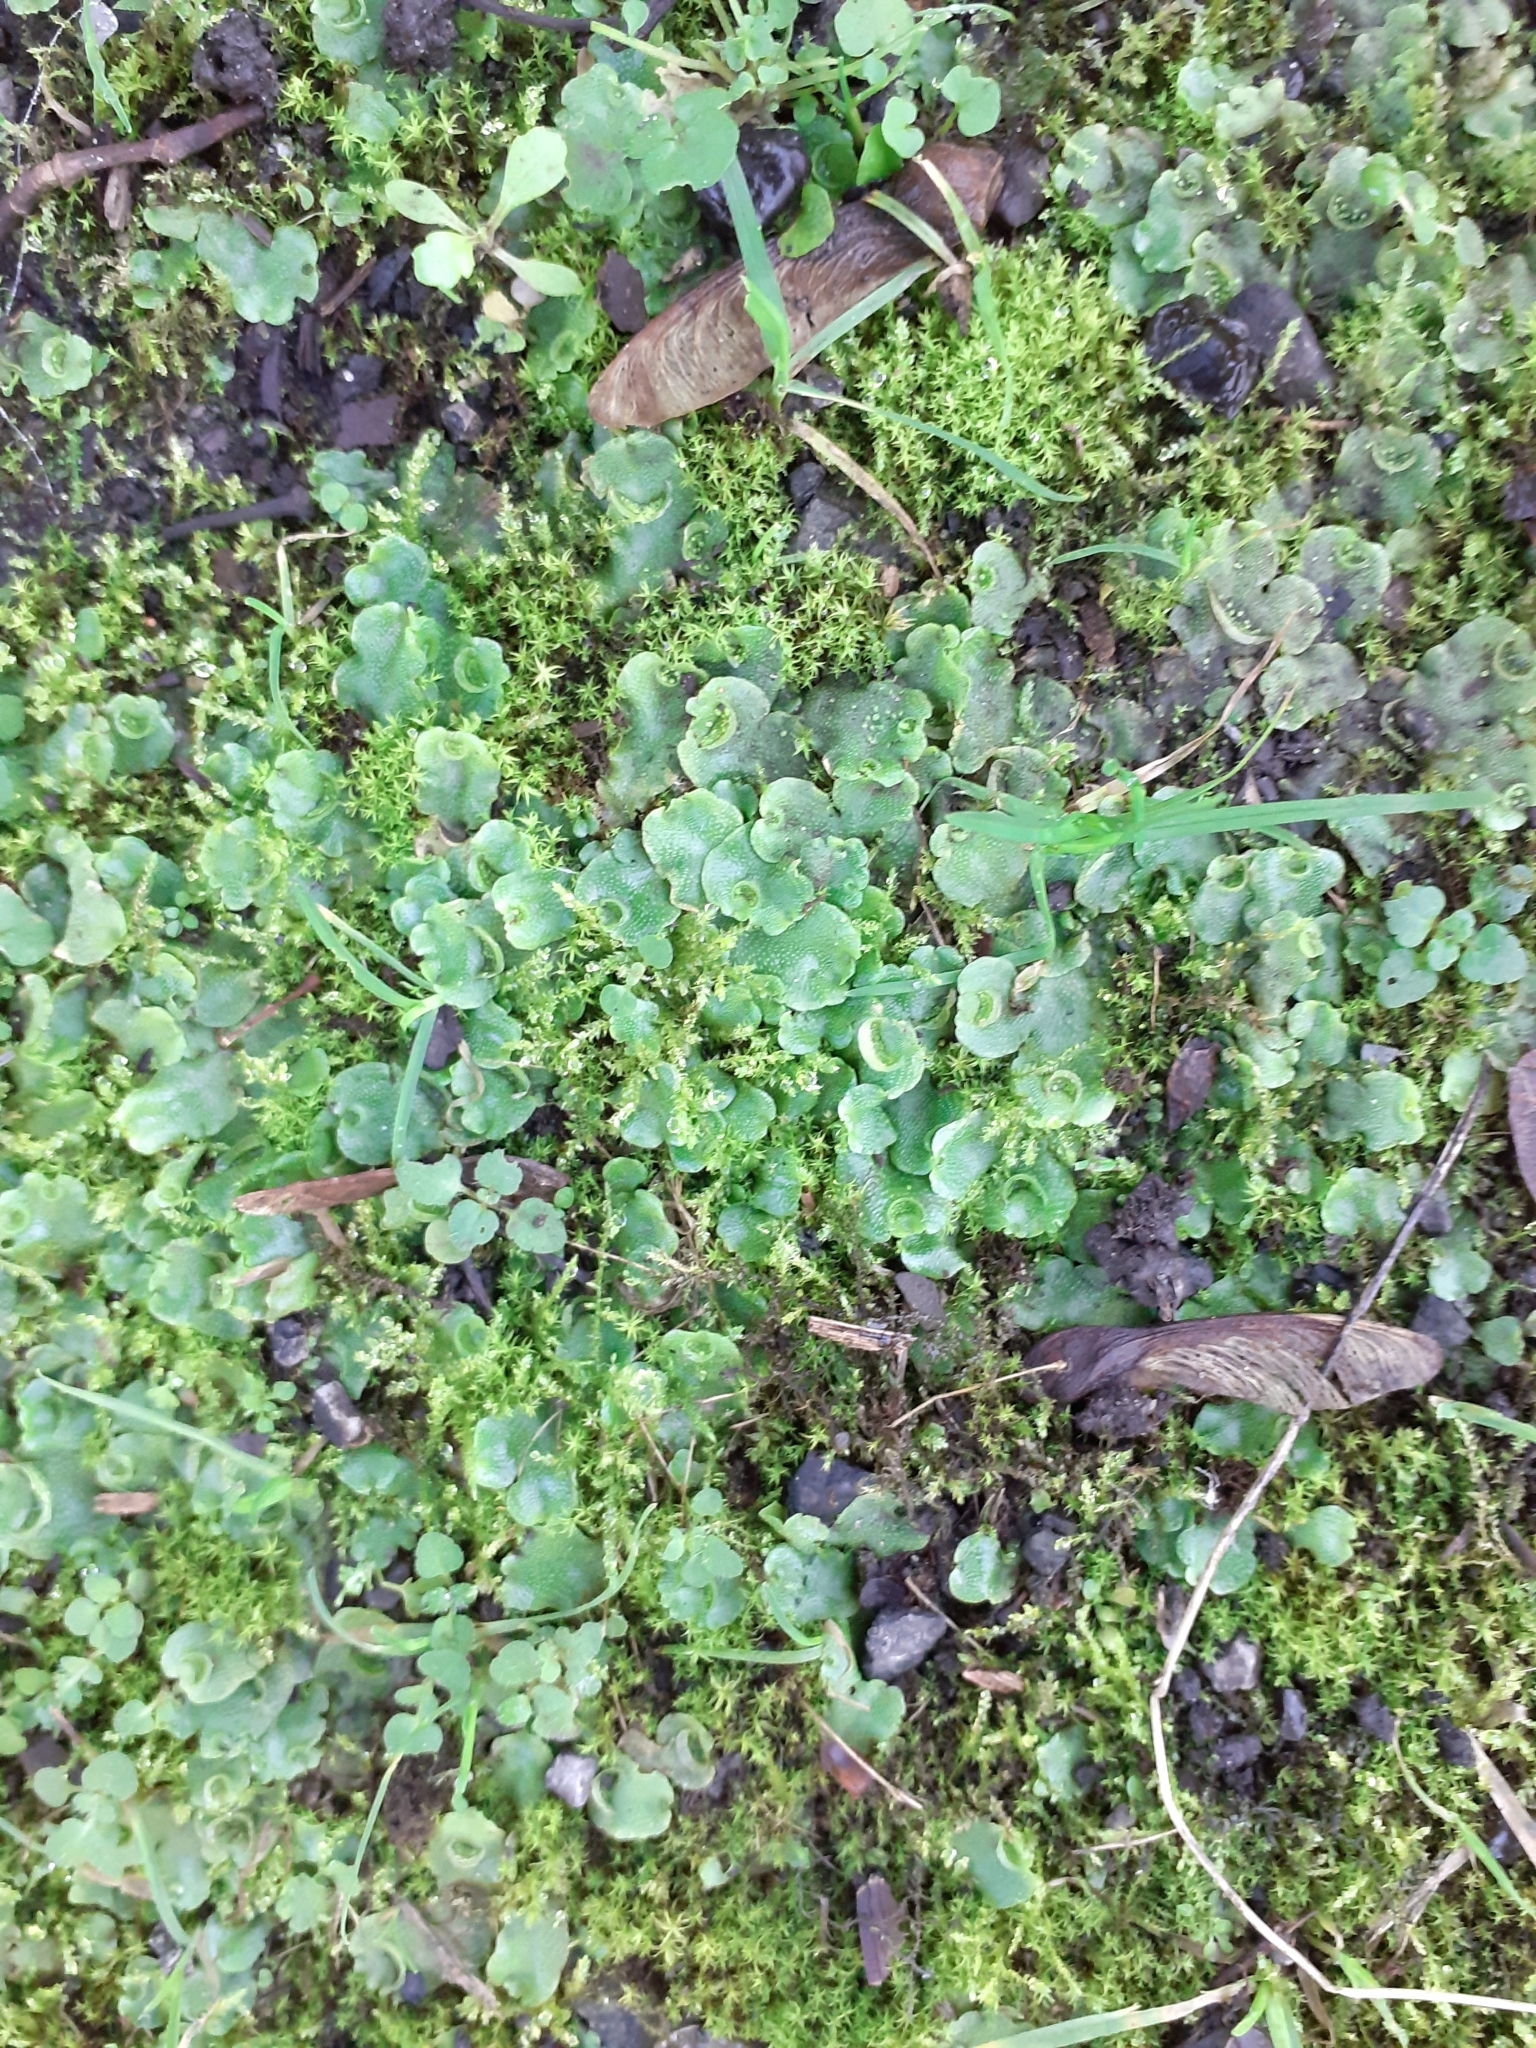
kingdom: Plantae
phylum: Marchantiophyta
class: Marchantiopsida
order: Lunulariales
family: Lunulariaceae
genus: Lunularia
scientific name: Lunularia cruciata
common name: Crescent-cup liverwort
